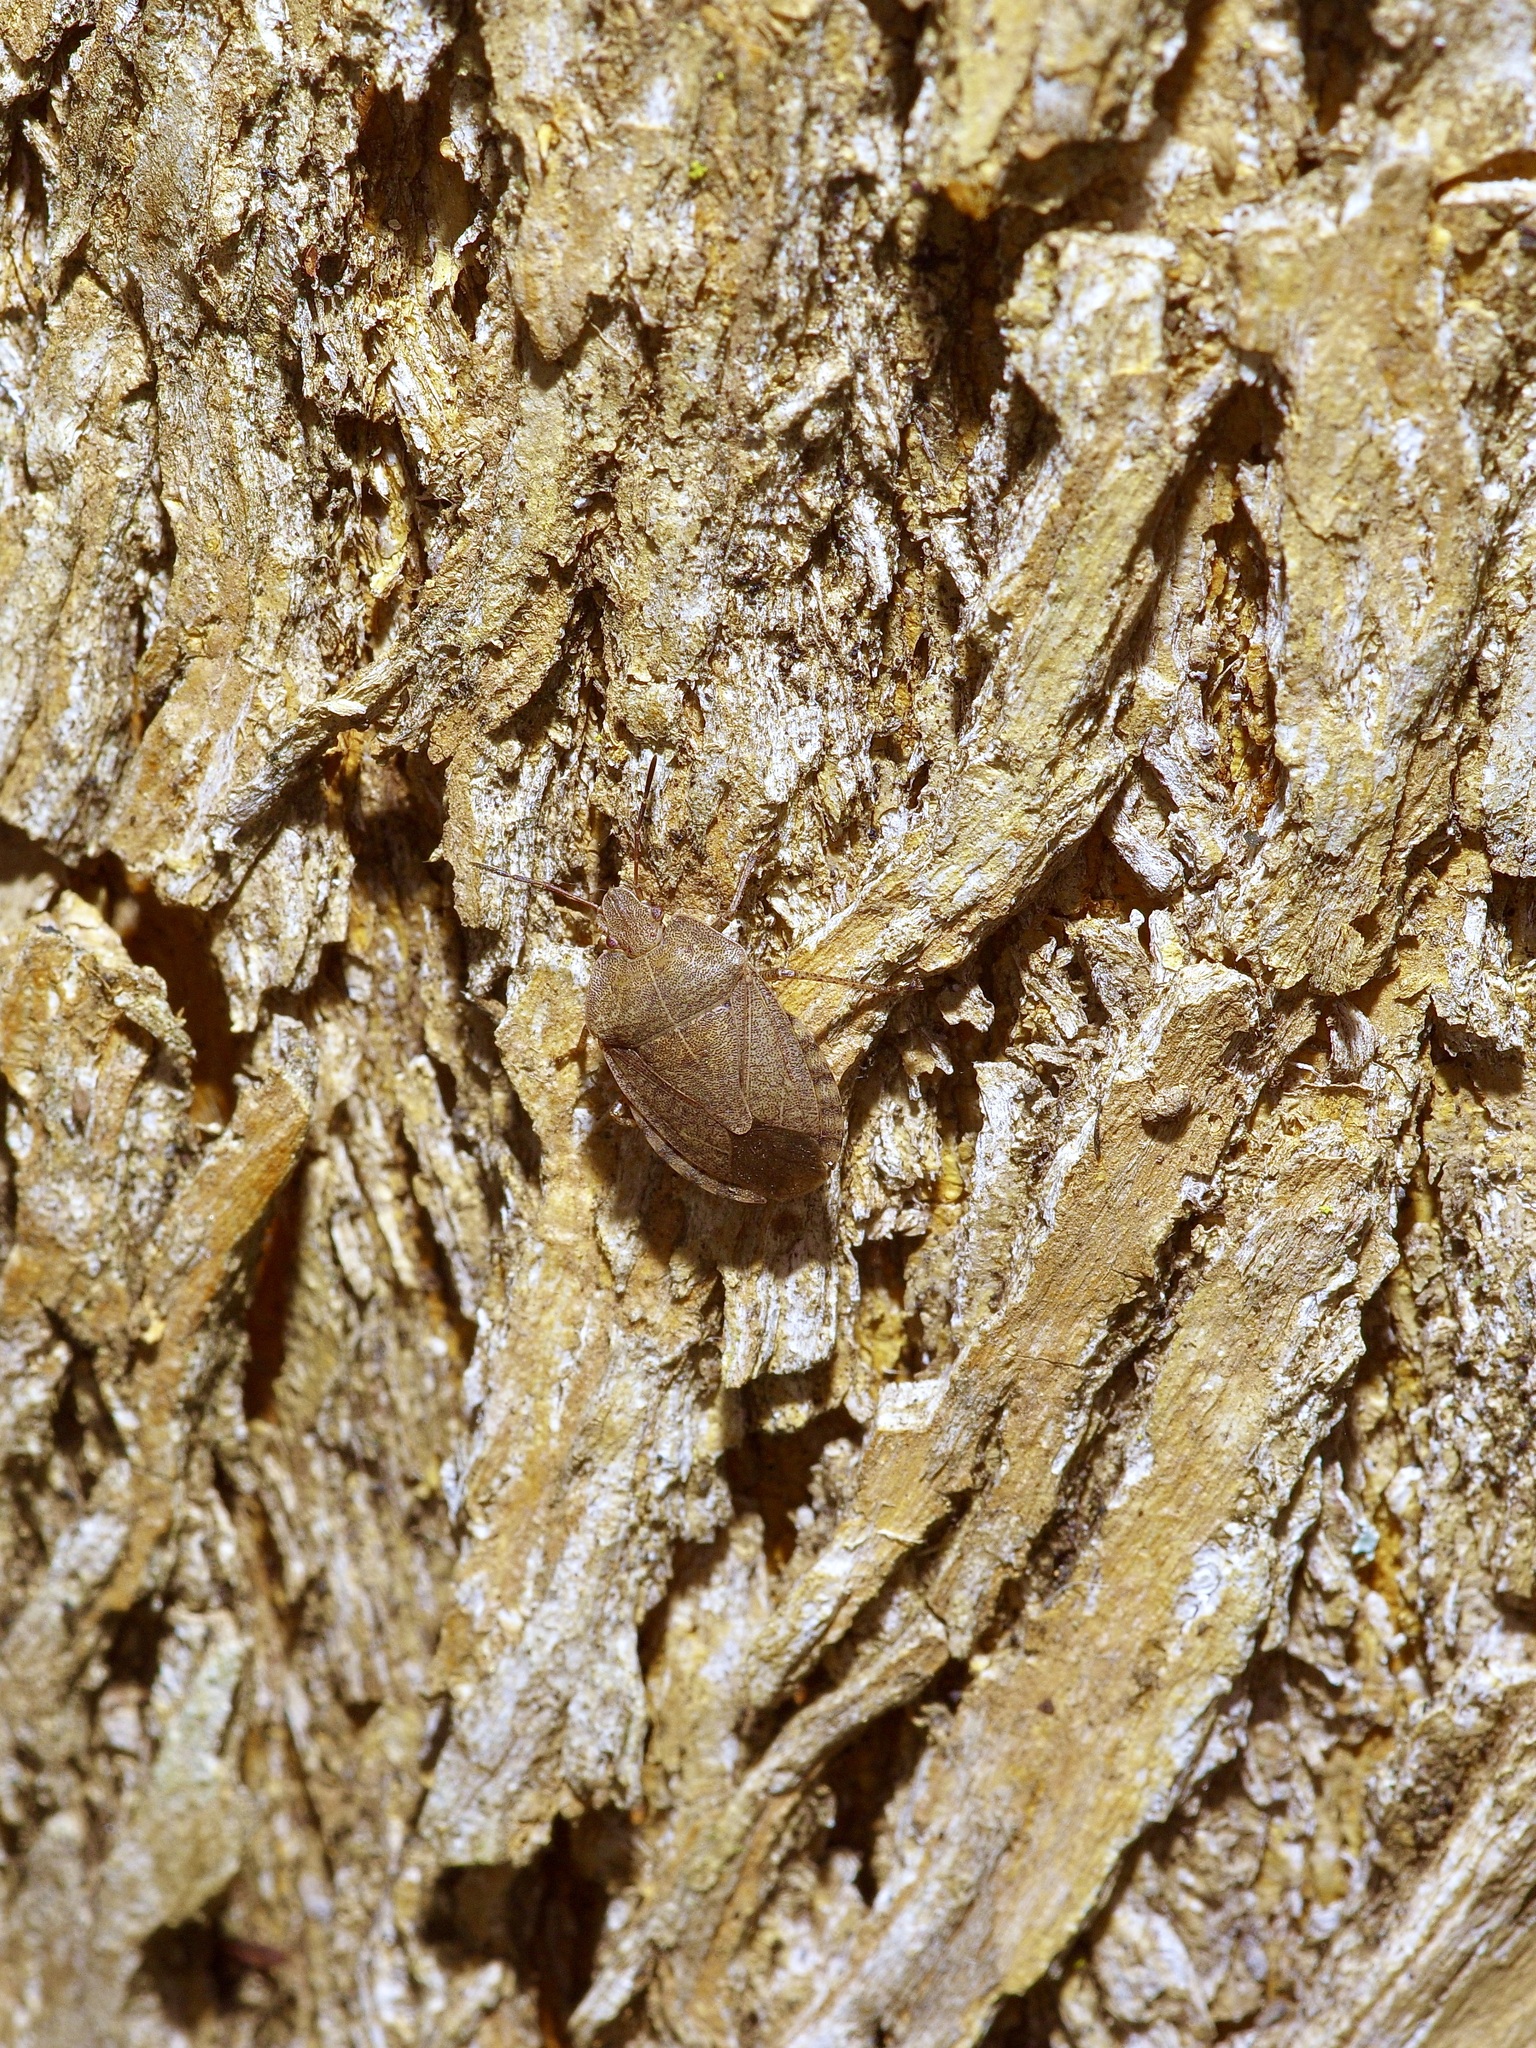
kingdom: Animalia
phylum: Arthropoda
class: Insecta
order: Hemiptera
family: Pentatomidae
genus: Menecles
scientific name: Menecles insertus
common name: Elf shoe stink bug
